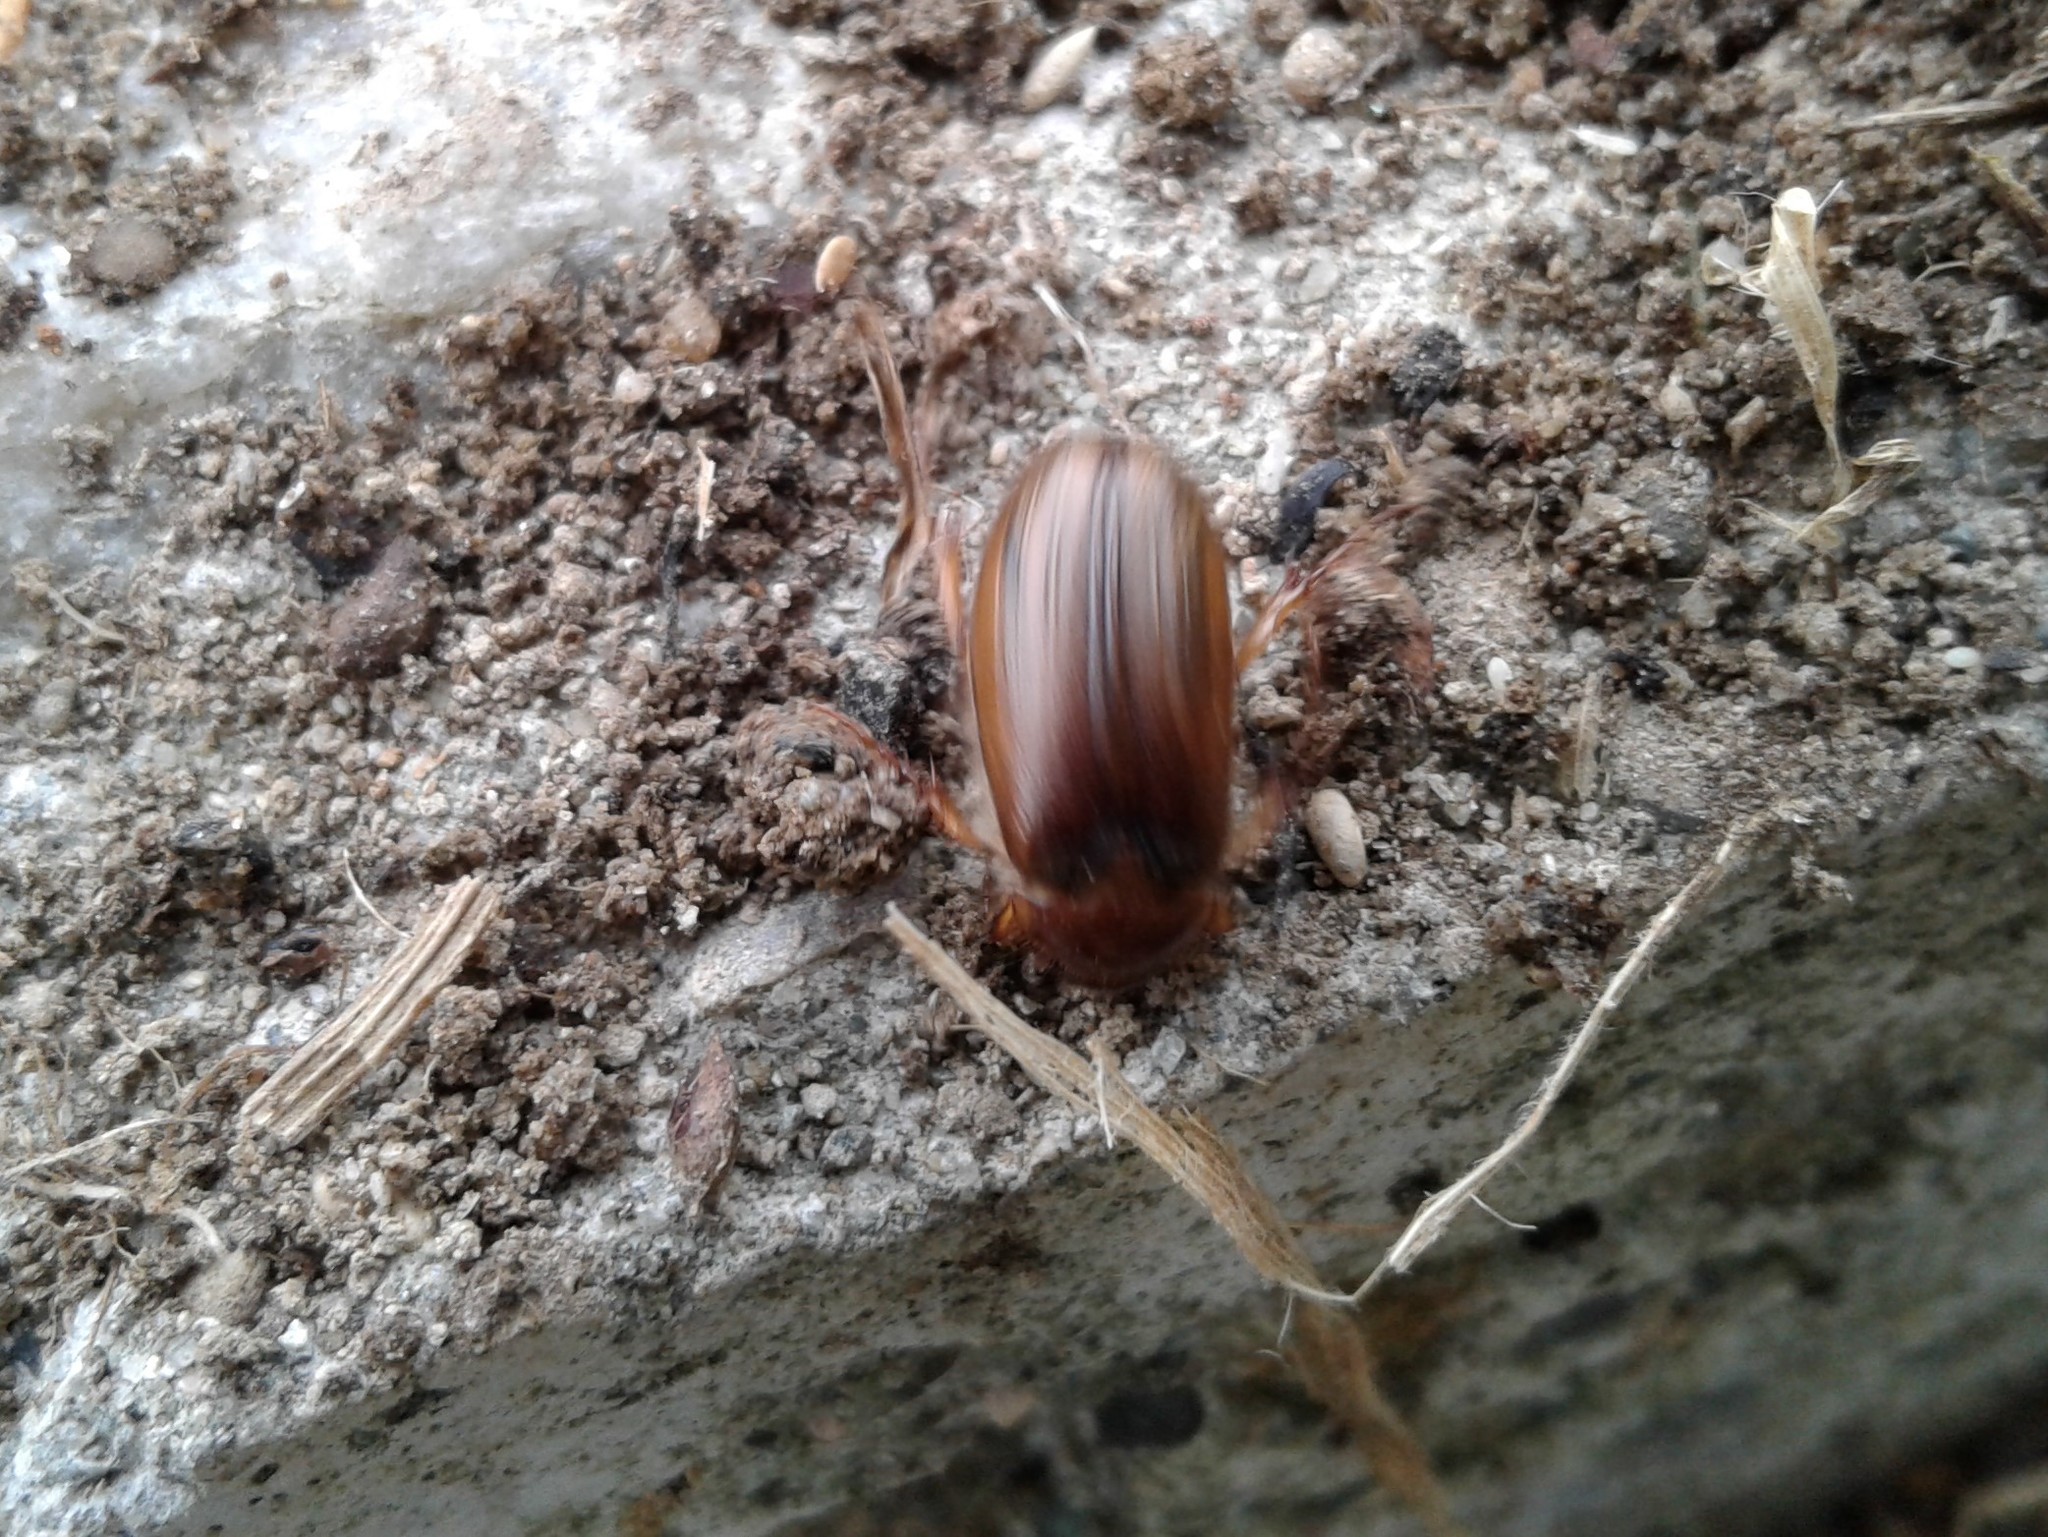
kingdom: Animalia
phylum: Arthropoda
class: Insecta
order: Coleoptera
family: Scarabaeidae
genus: Costelytra
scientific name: Costelytra zealandica
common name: New zealand grass grub
